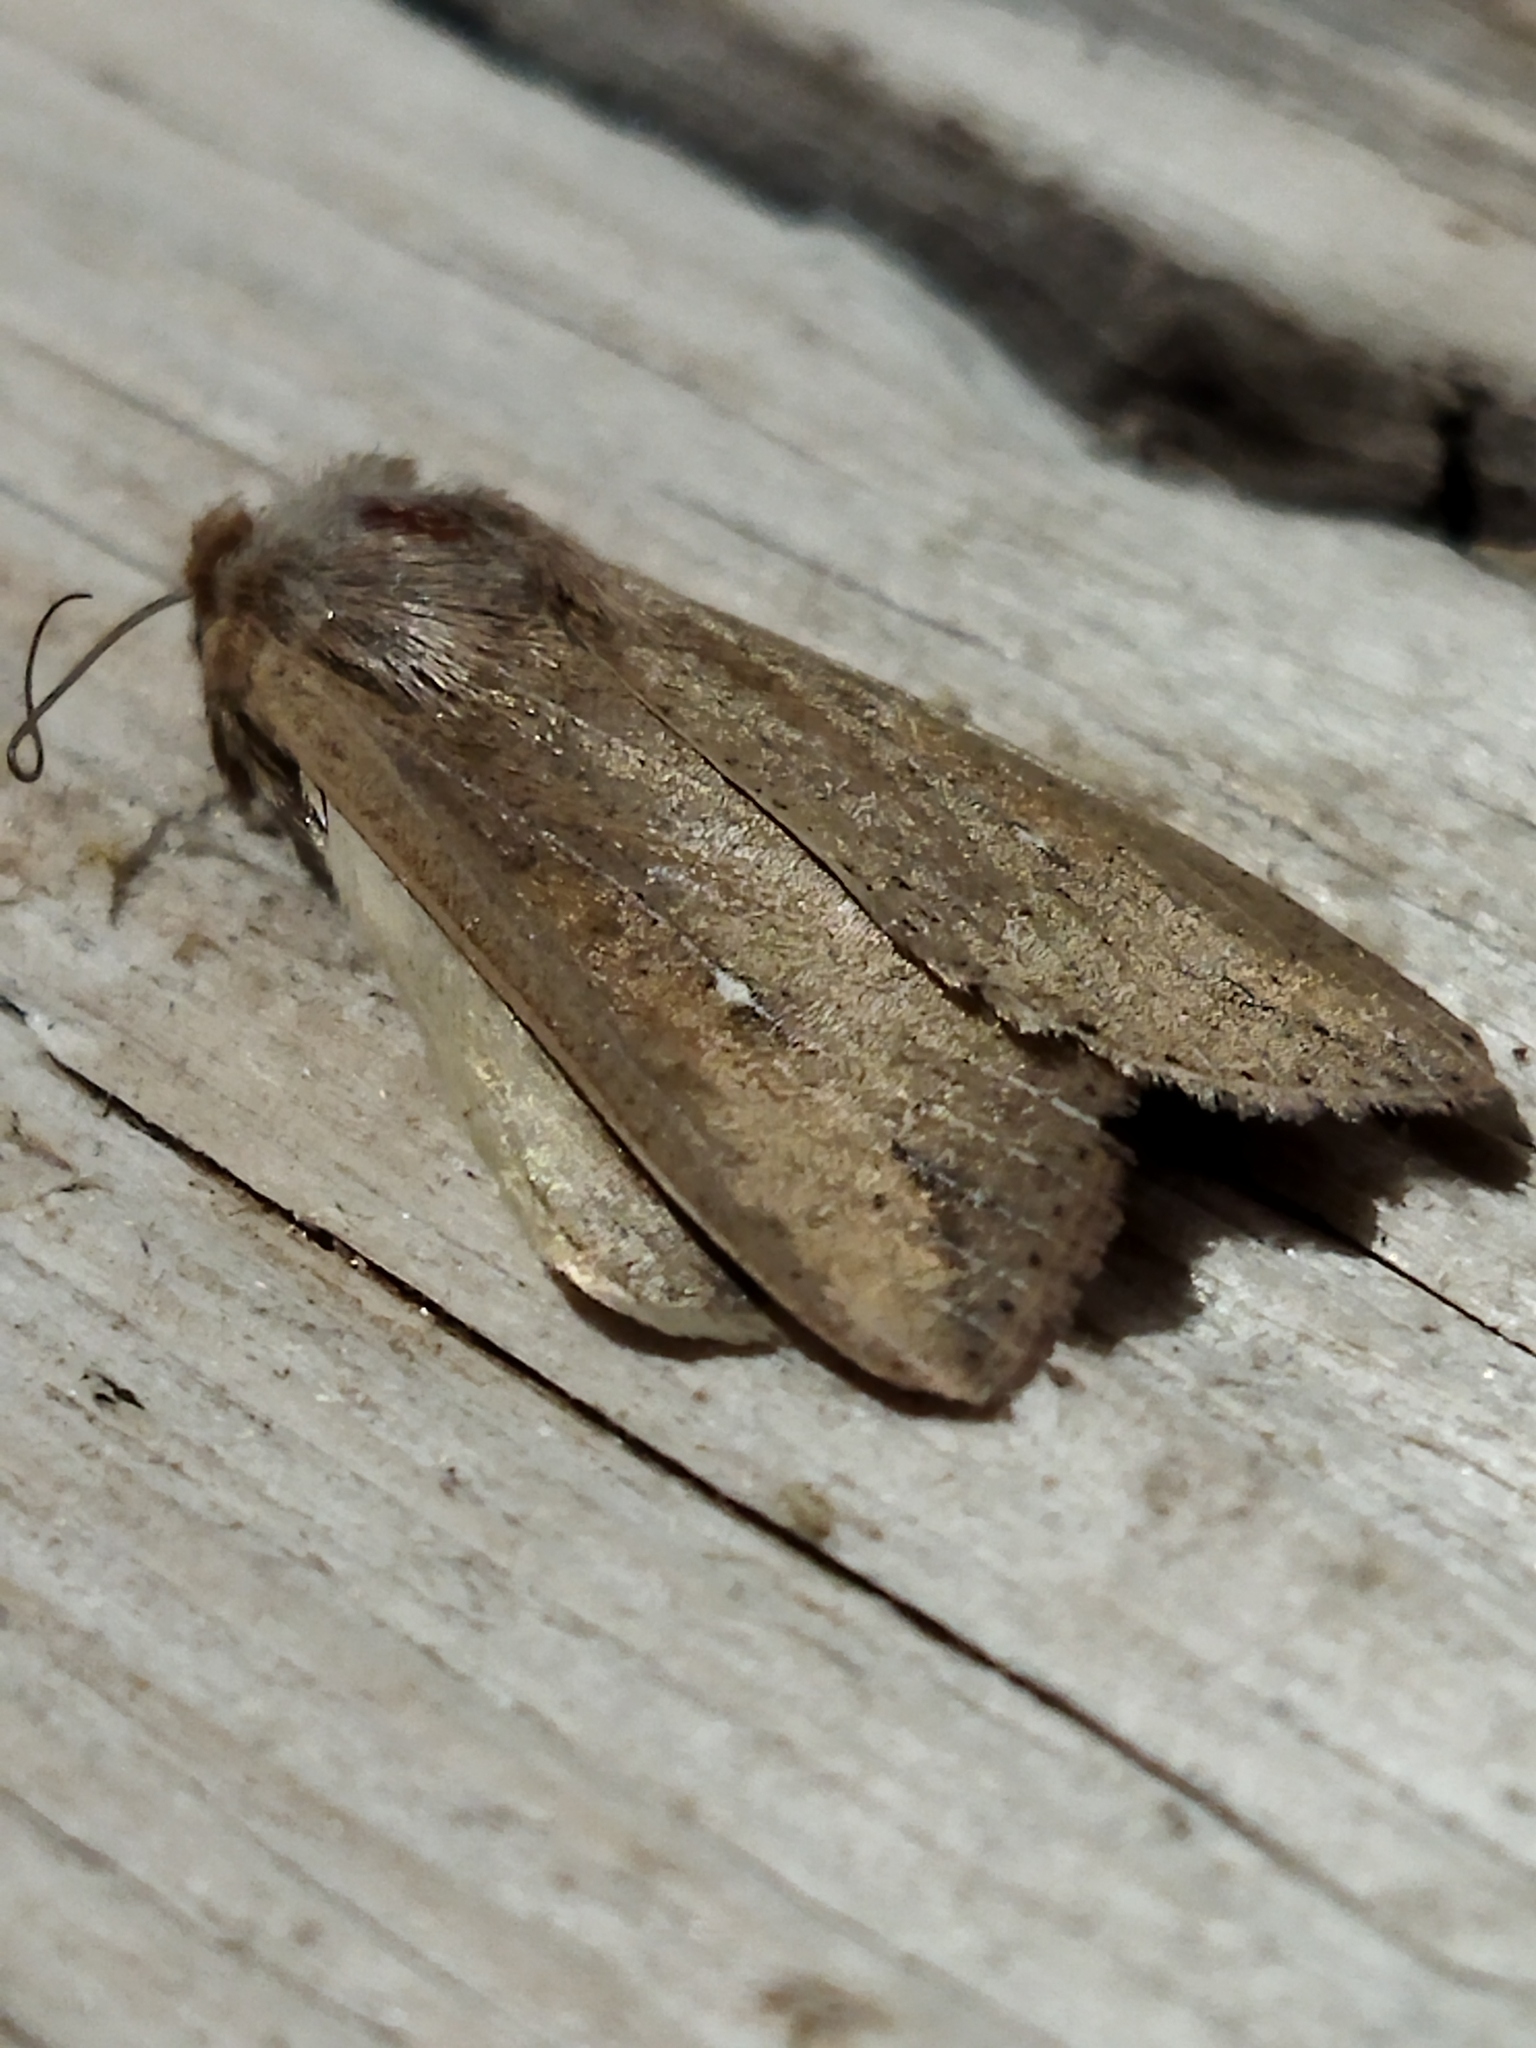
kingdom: Animalia
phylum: Arthropoda
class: Insecta
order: Lepidoptera
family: Noctuidae
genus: Mythimna
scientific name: Mythimna unipuncta
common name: White-speck
